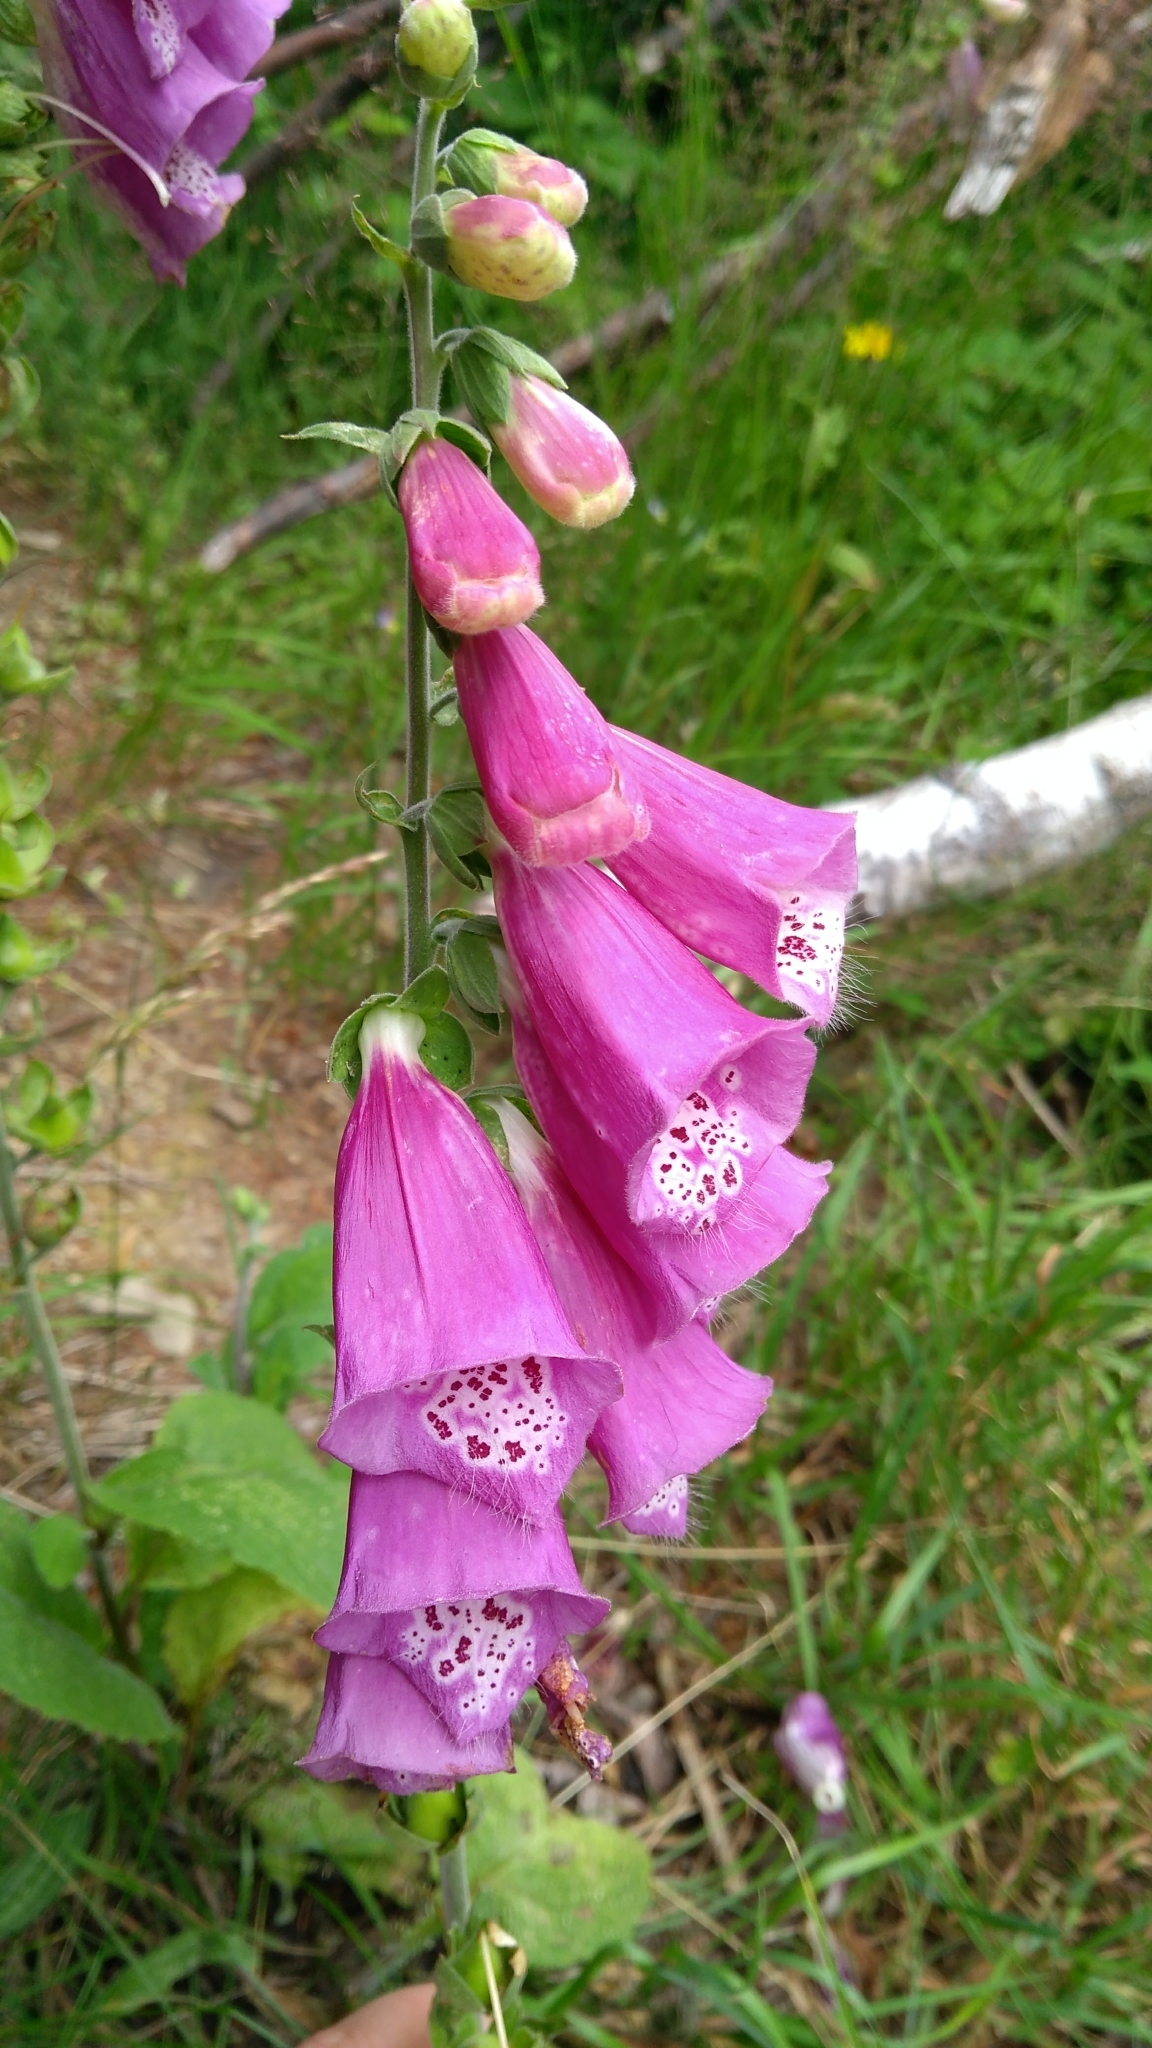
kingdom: Plantae
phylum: Tracheophyta
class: Magnoliopsida
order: Lamiales
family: Plantaginaceae
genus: Digitalis
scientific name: Digitalis purpurea
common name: Foxglove
